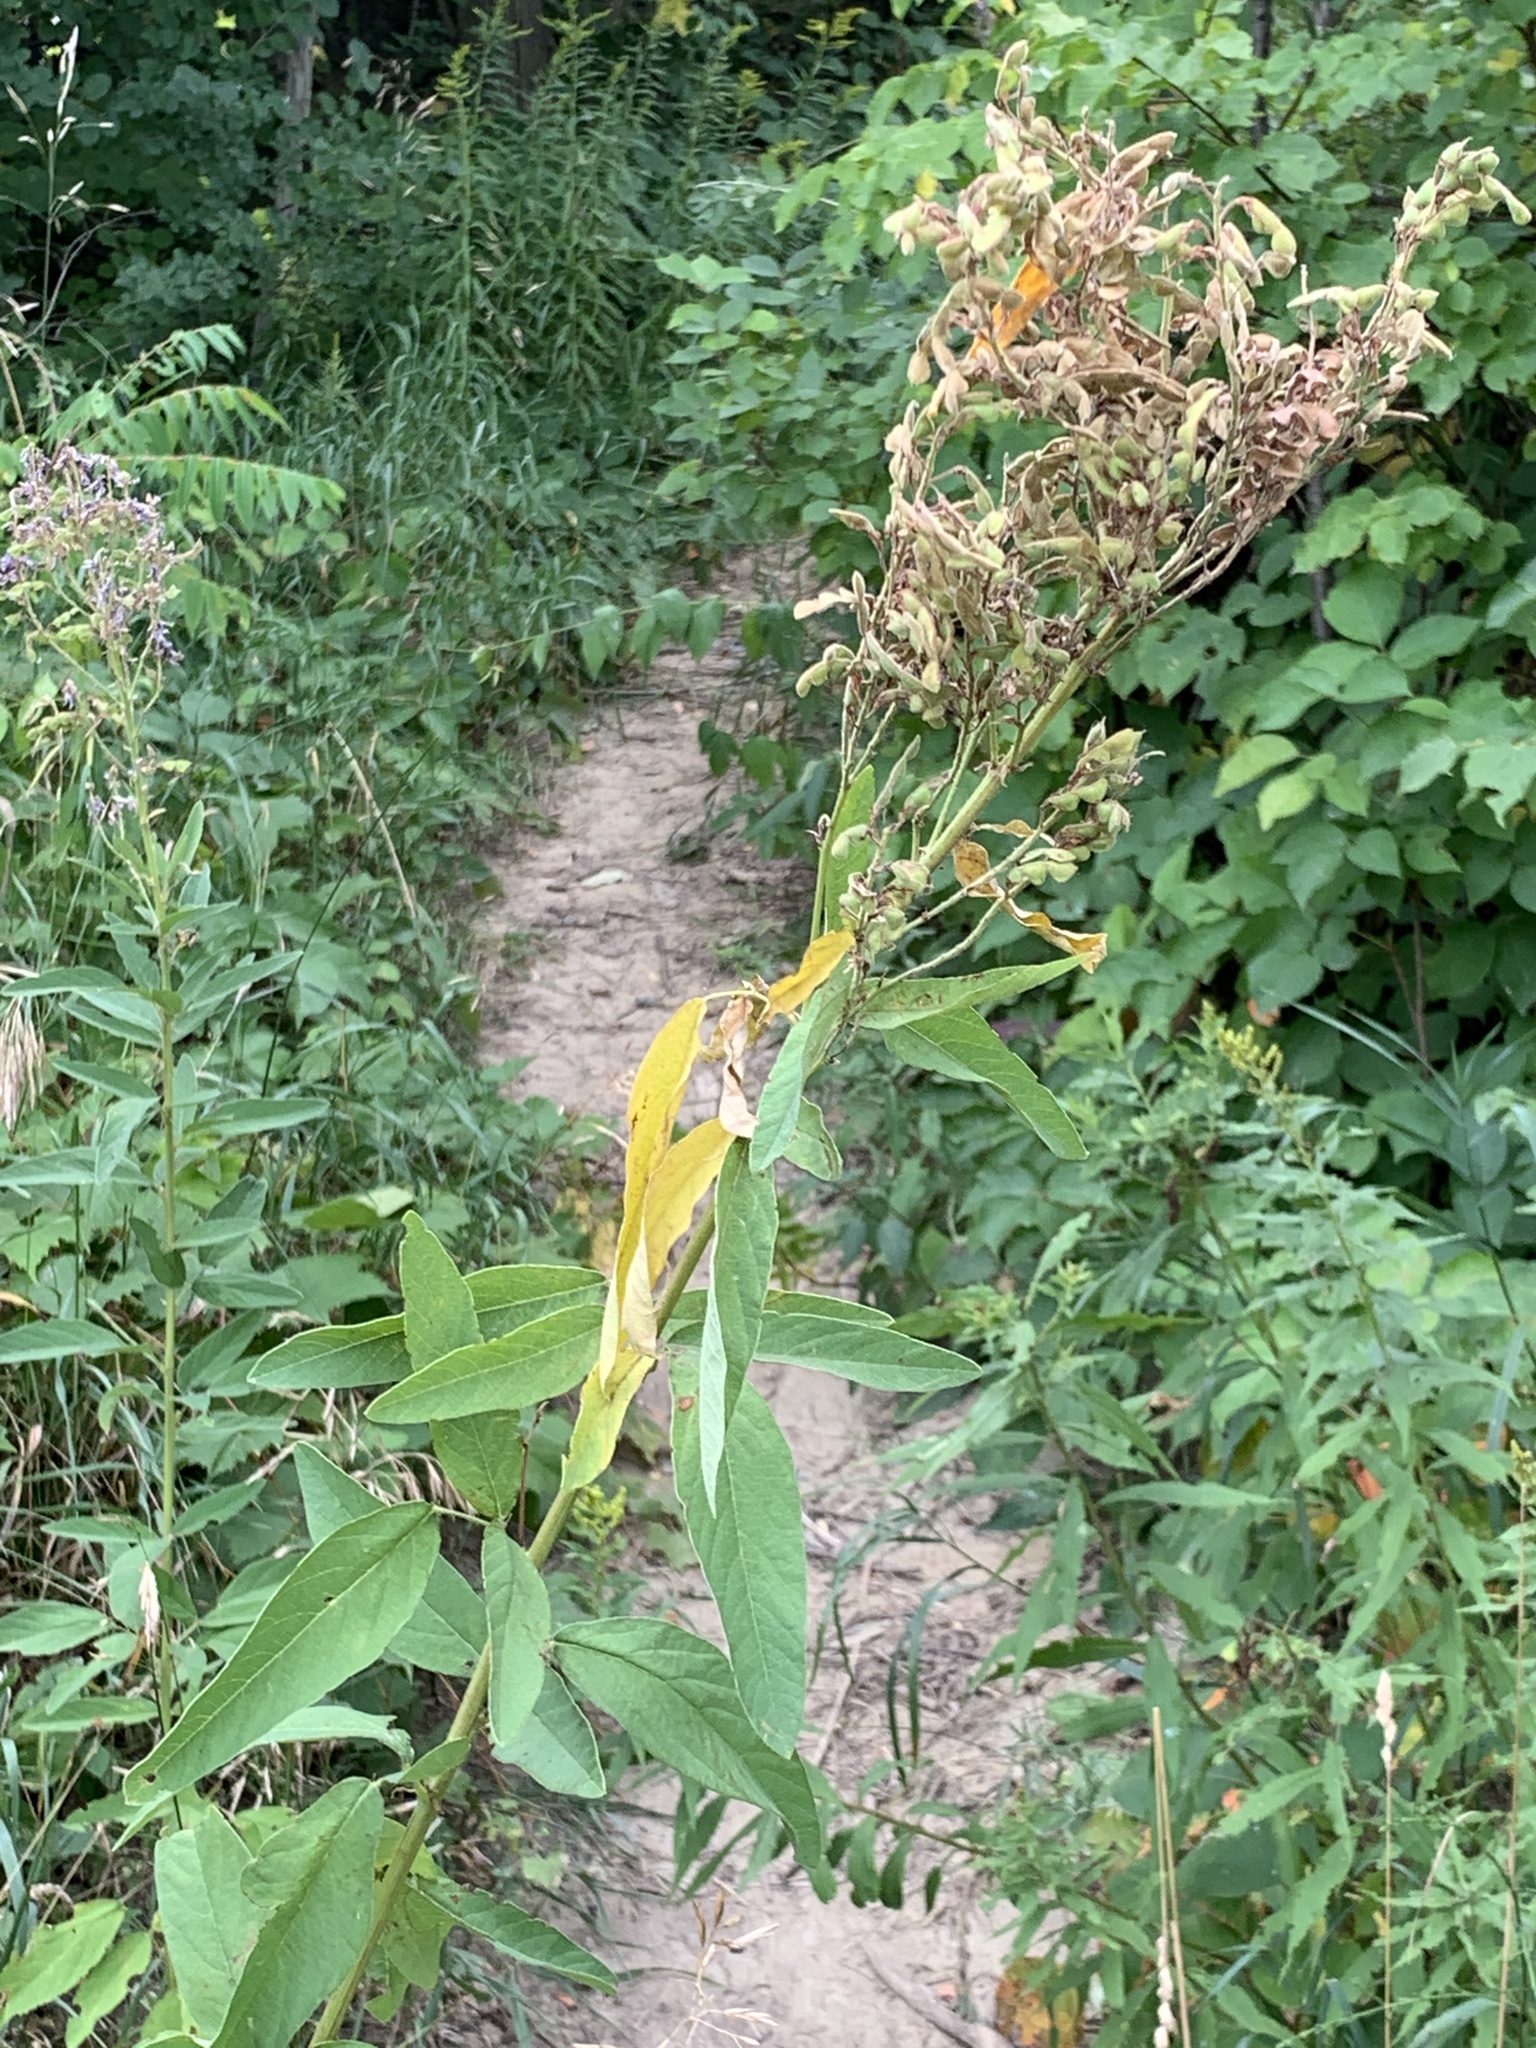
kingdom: Plantae
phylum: Tracheophyta
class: Magnoliopsida
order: Fabales
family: Fabaceae
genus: Desmodium
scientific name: Desmodium canadense
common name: Canada tick-trefoil
